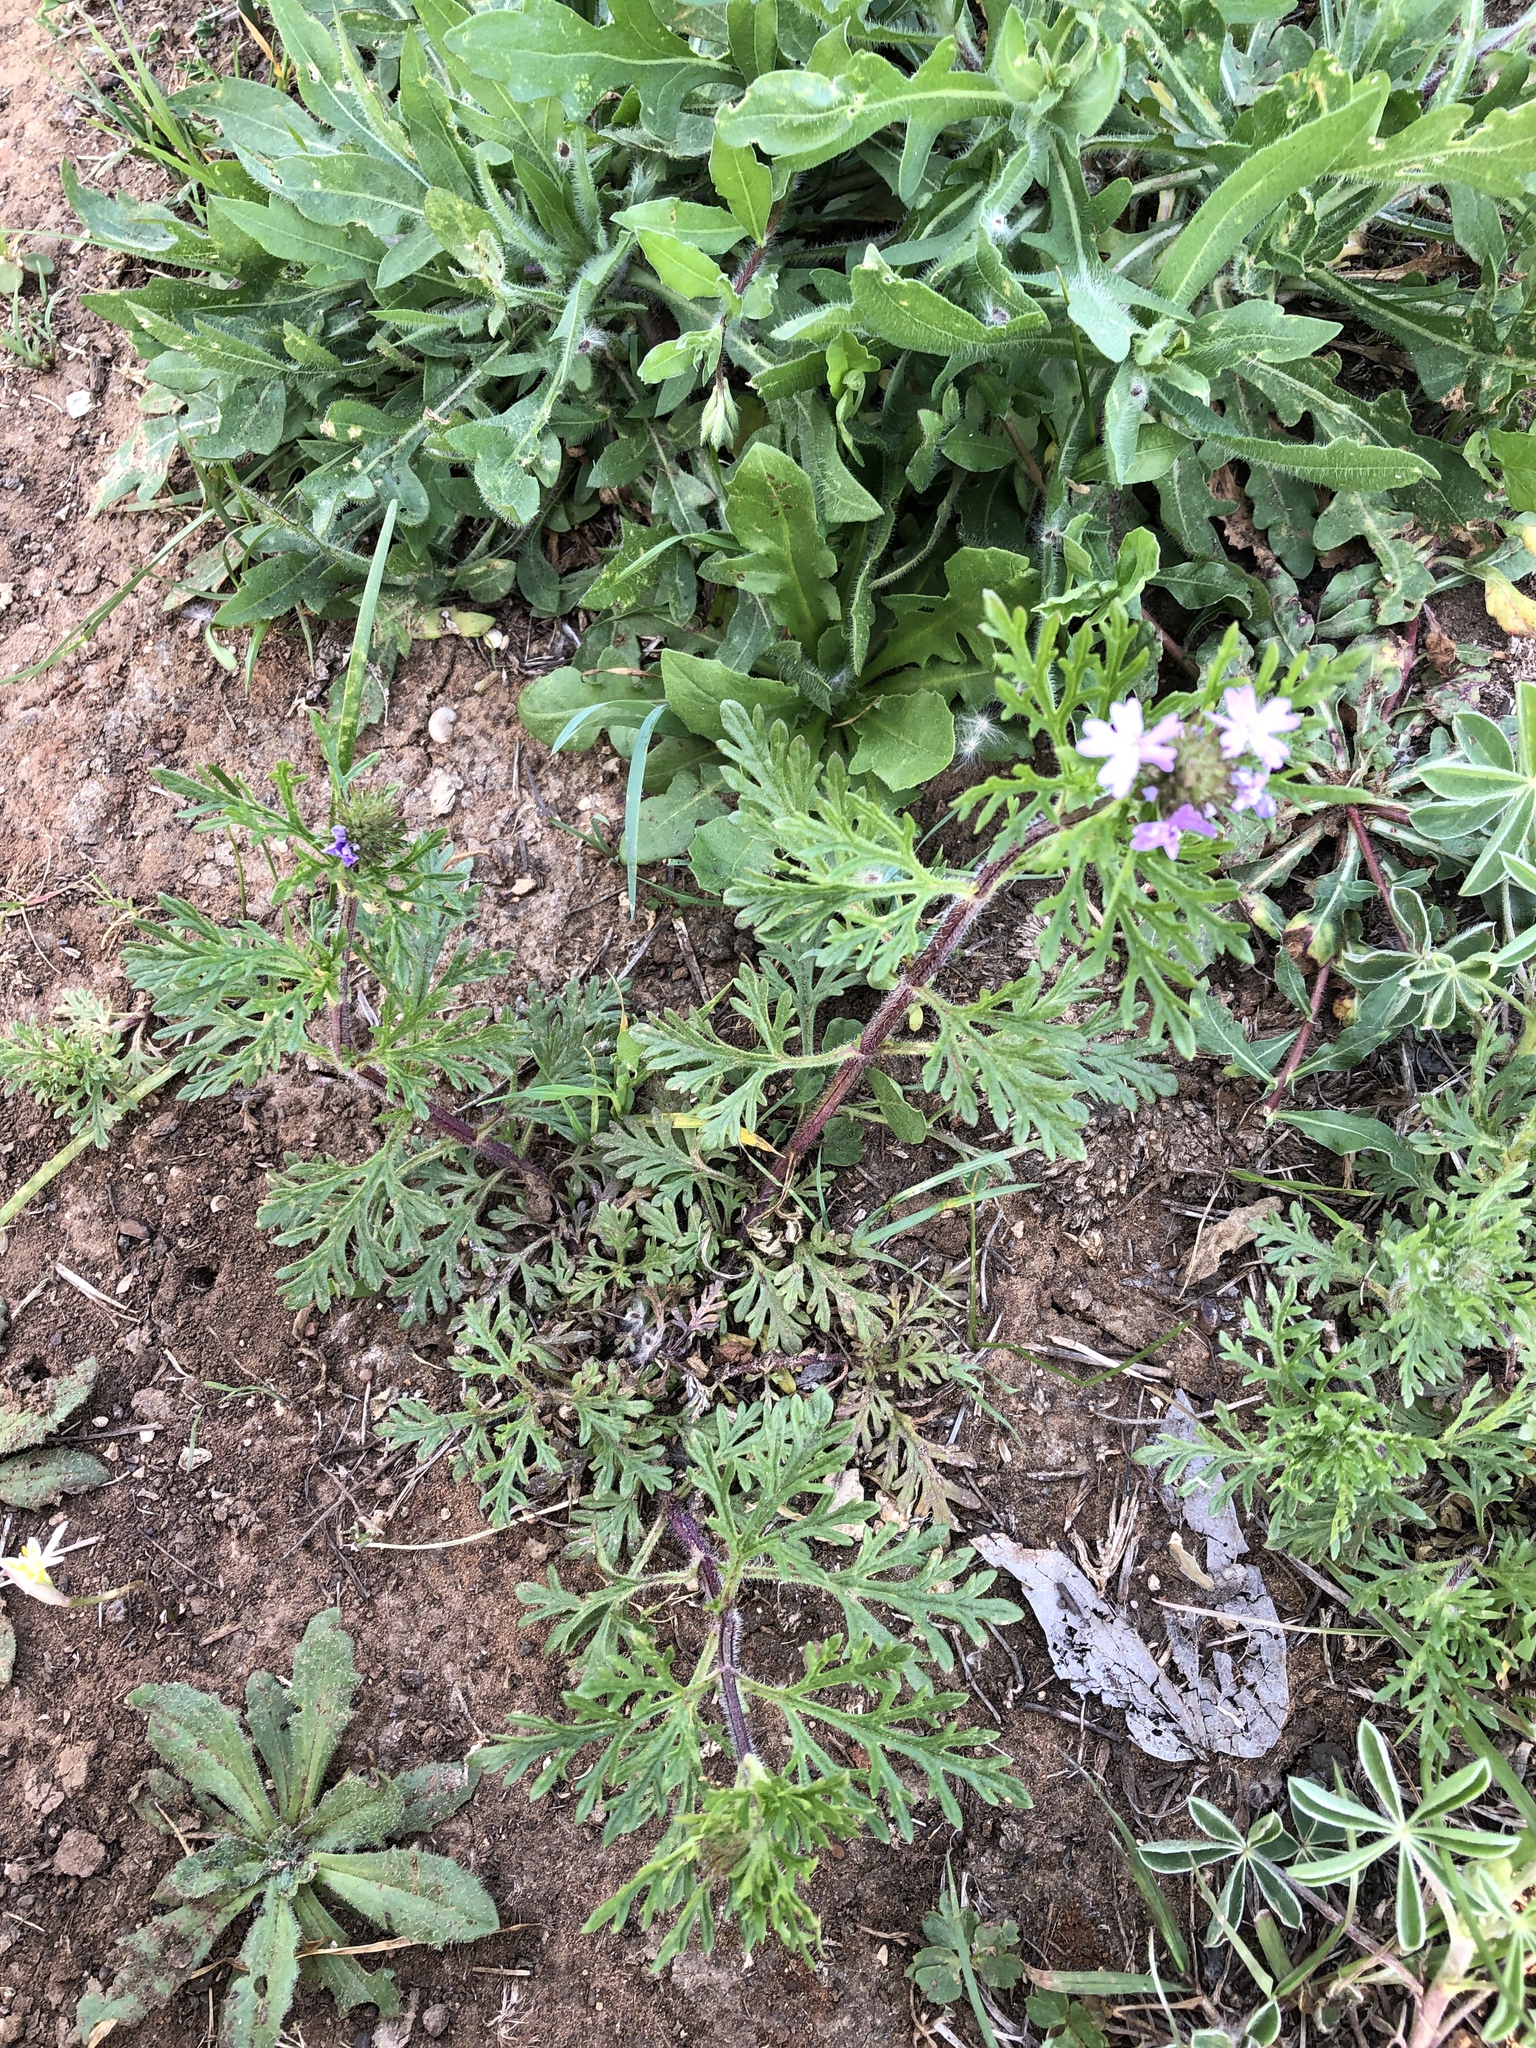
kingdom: Plantae
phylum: Tracheophyta
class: Magnoliopsida
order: Lamiales
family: Verbenaceae
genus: Verbena
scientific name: Verbena bipinnatifida
